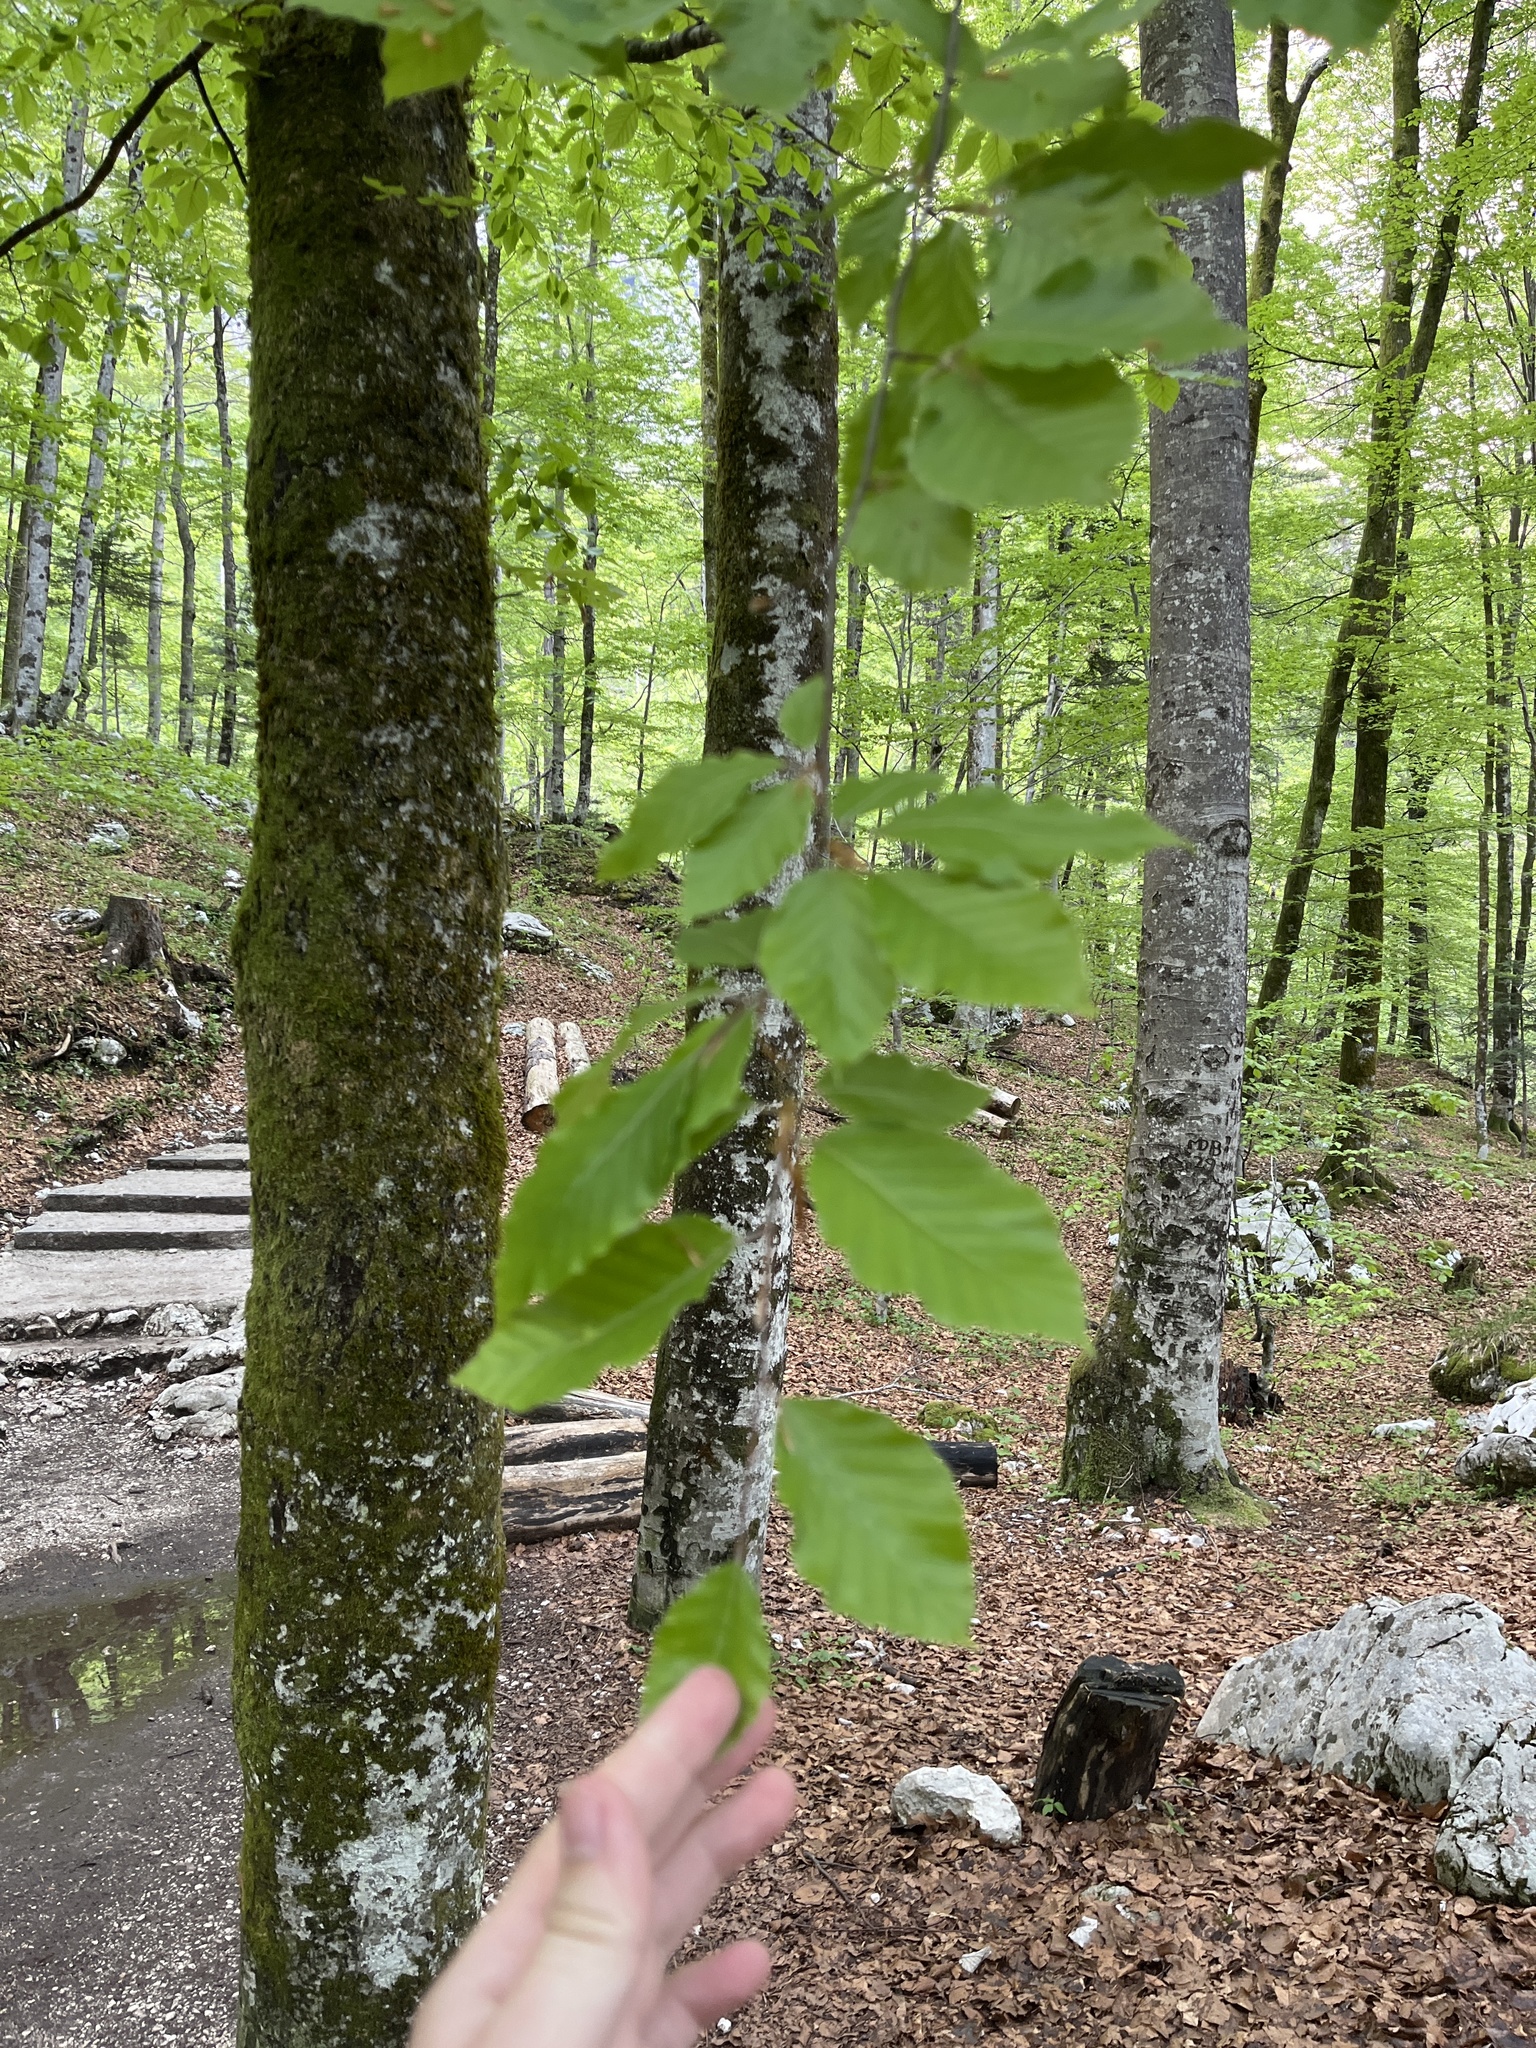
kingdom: Plantae
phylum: Tracheophyta
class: Magnoliopsida
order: Fagales
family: Fagaceae
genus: Fagus
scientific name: Fagus sylvatica
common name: Beech
